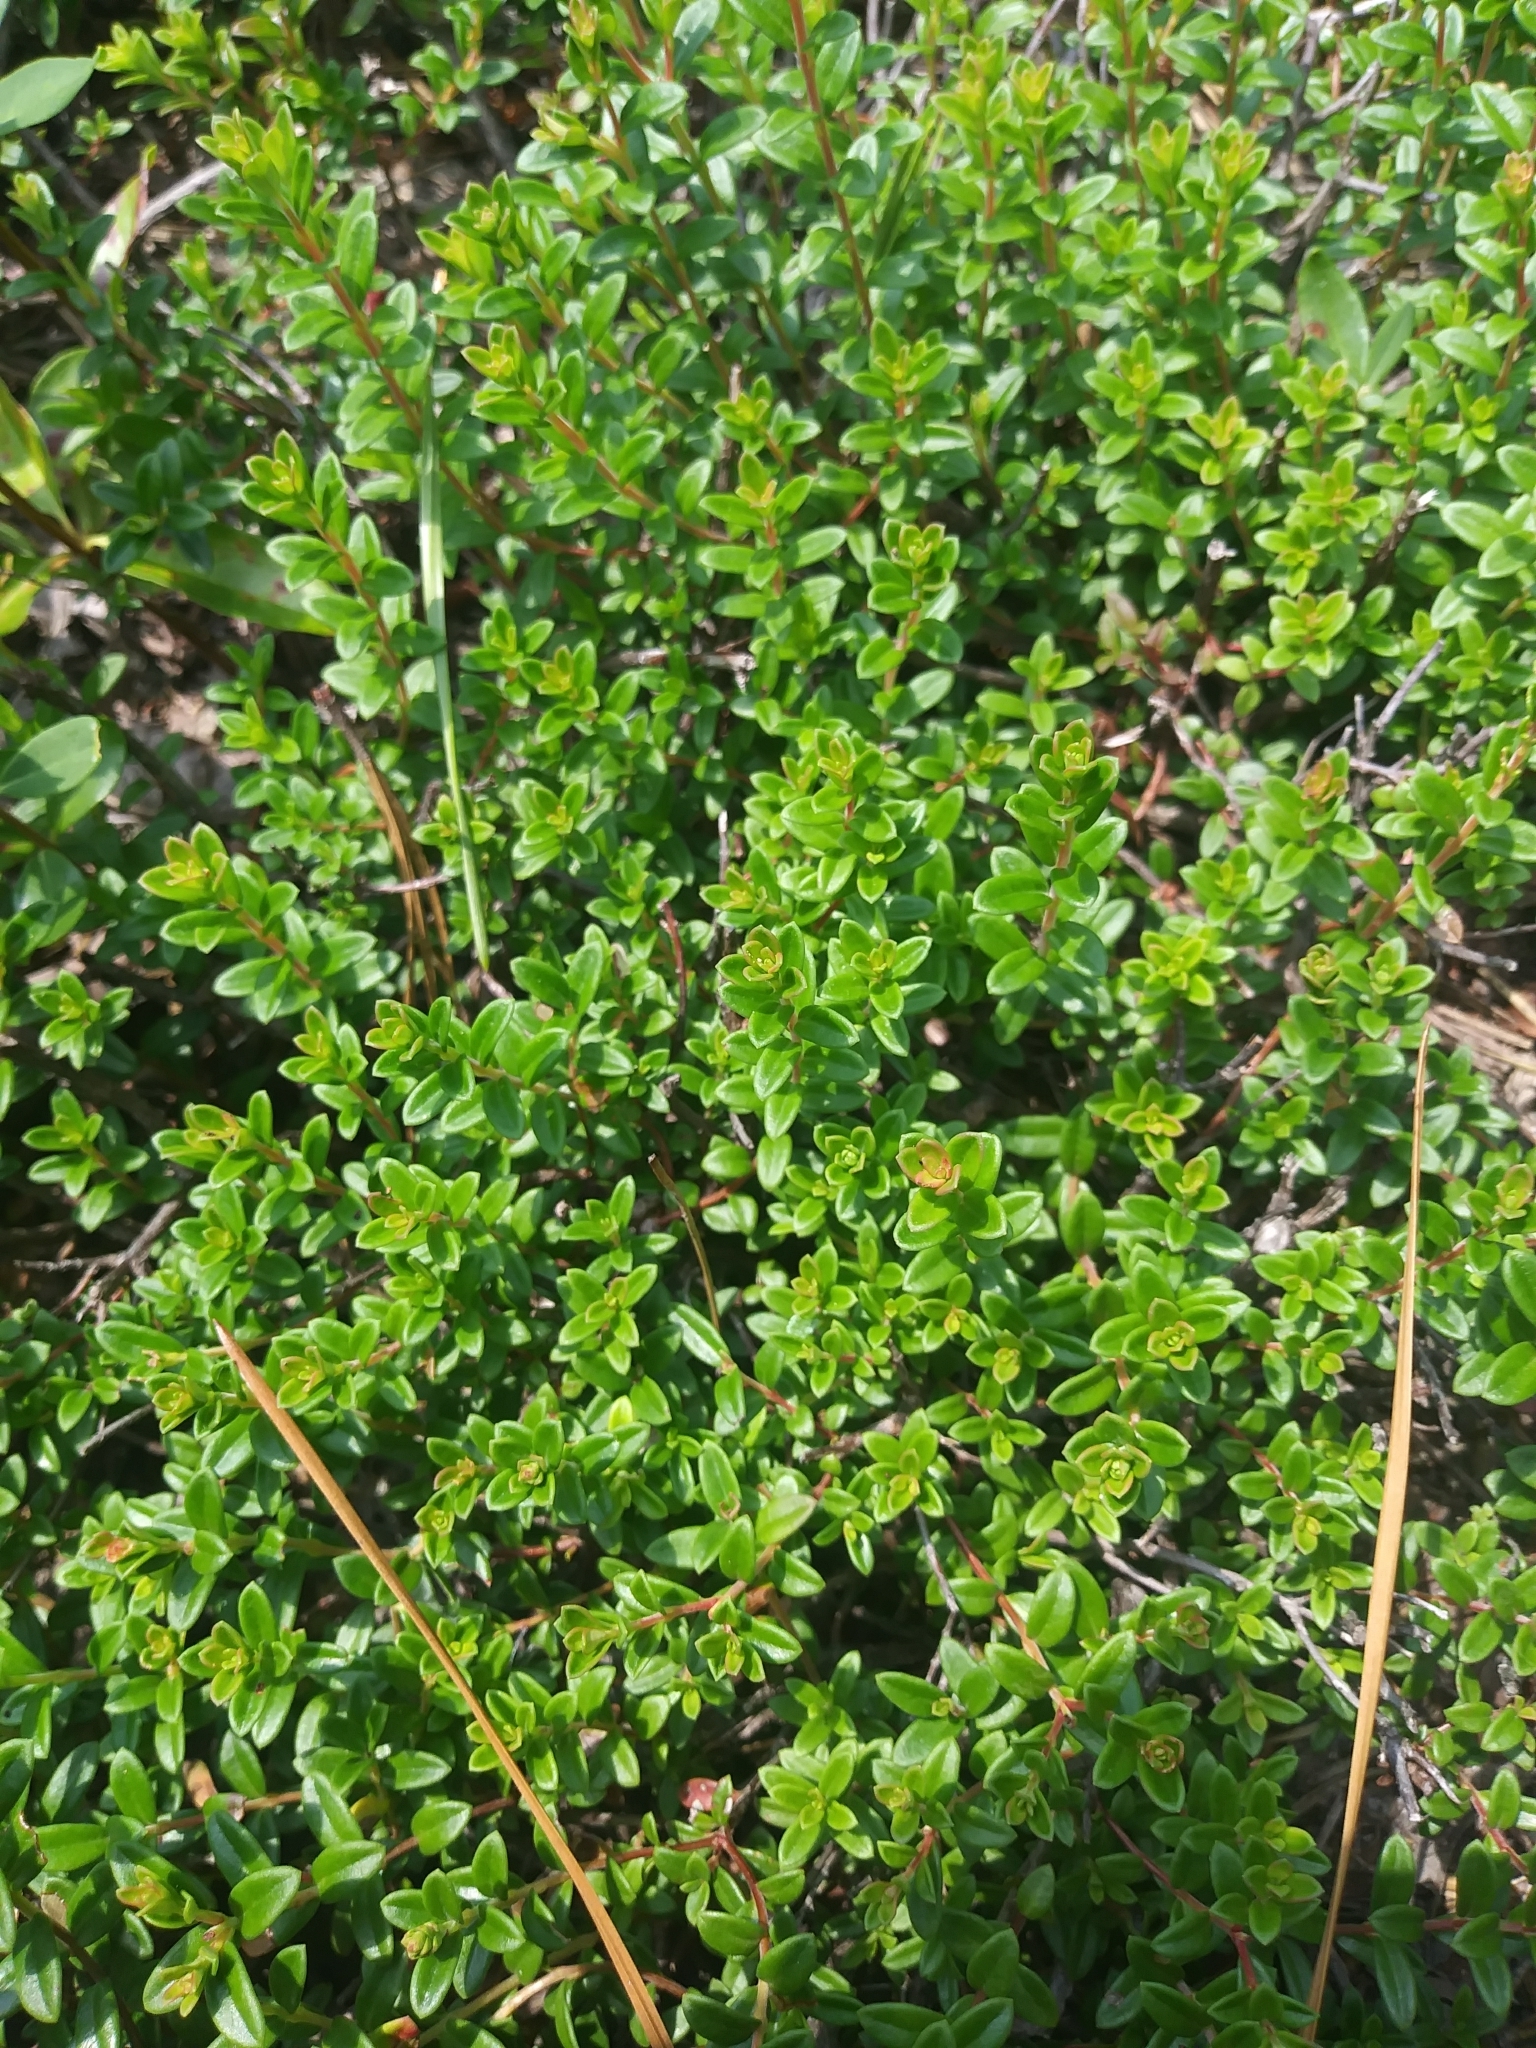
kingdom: Plantae
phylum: Tracheophyta
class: Magnoliopsida
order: Ericales
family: Ericaceae
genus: Kalmia
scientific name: Kalmia buxifolia
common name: Sandmyrtle
